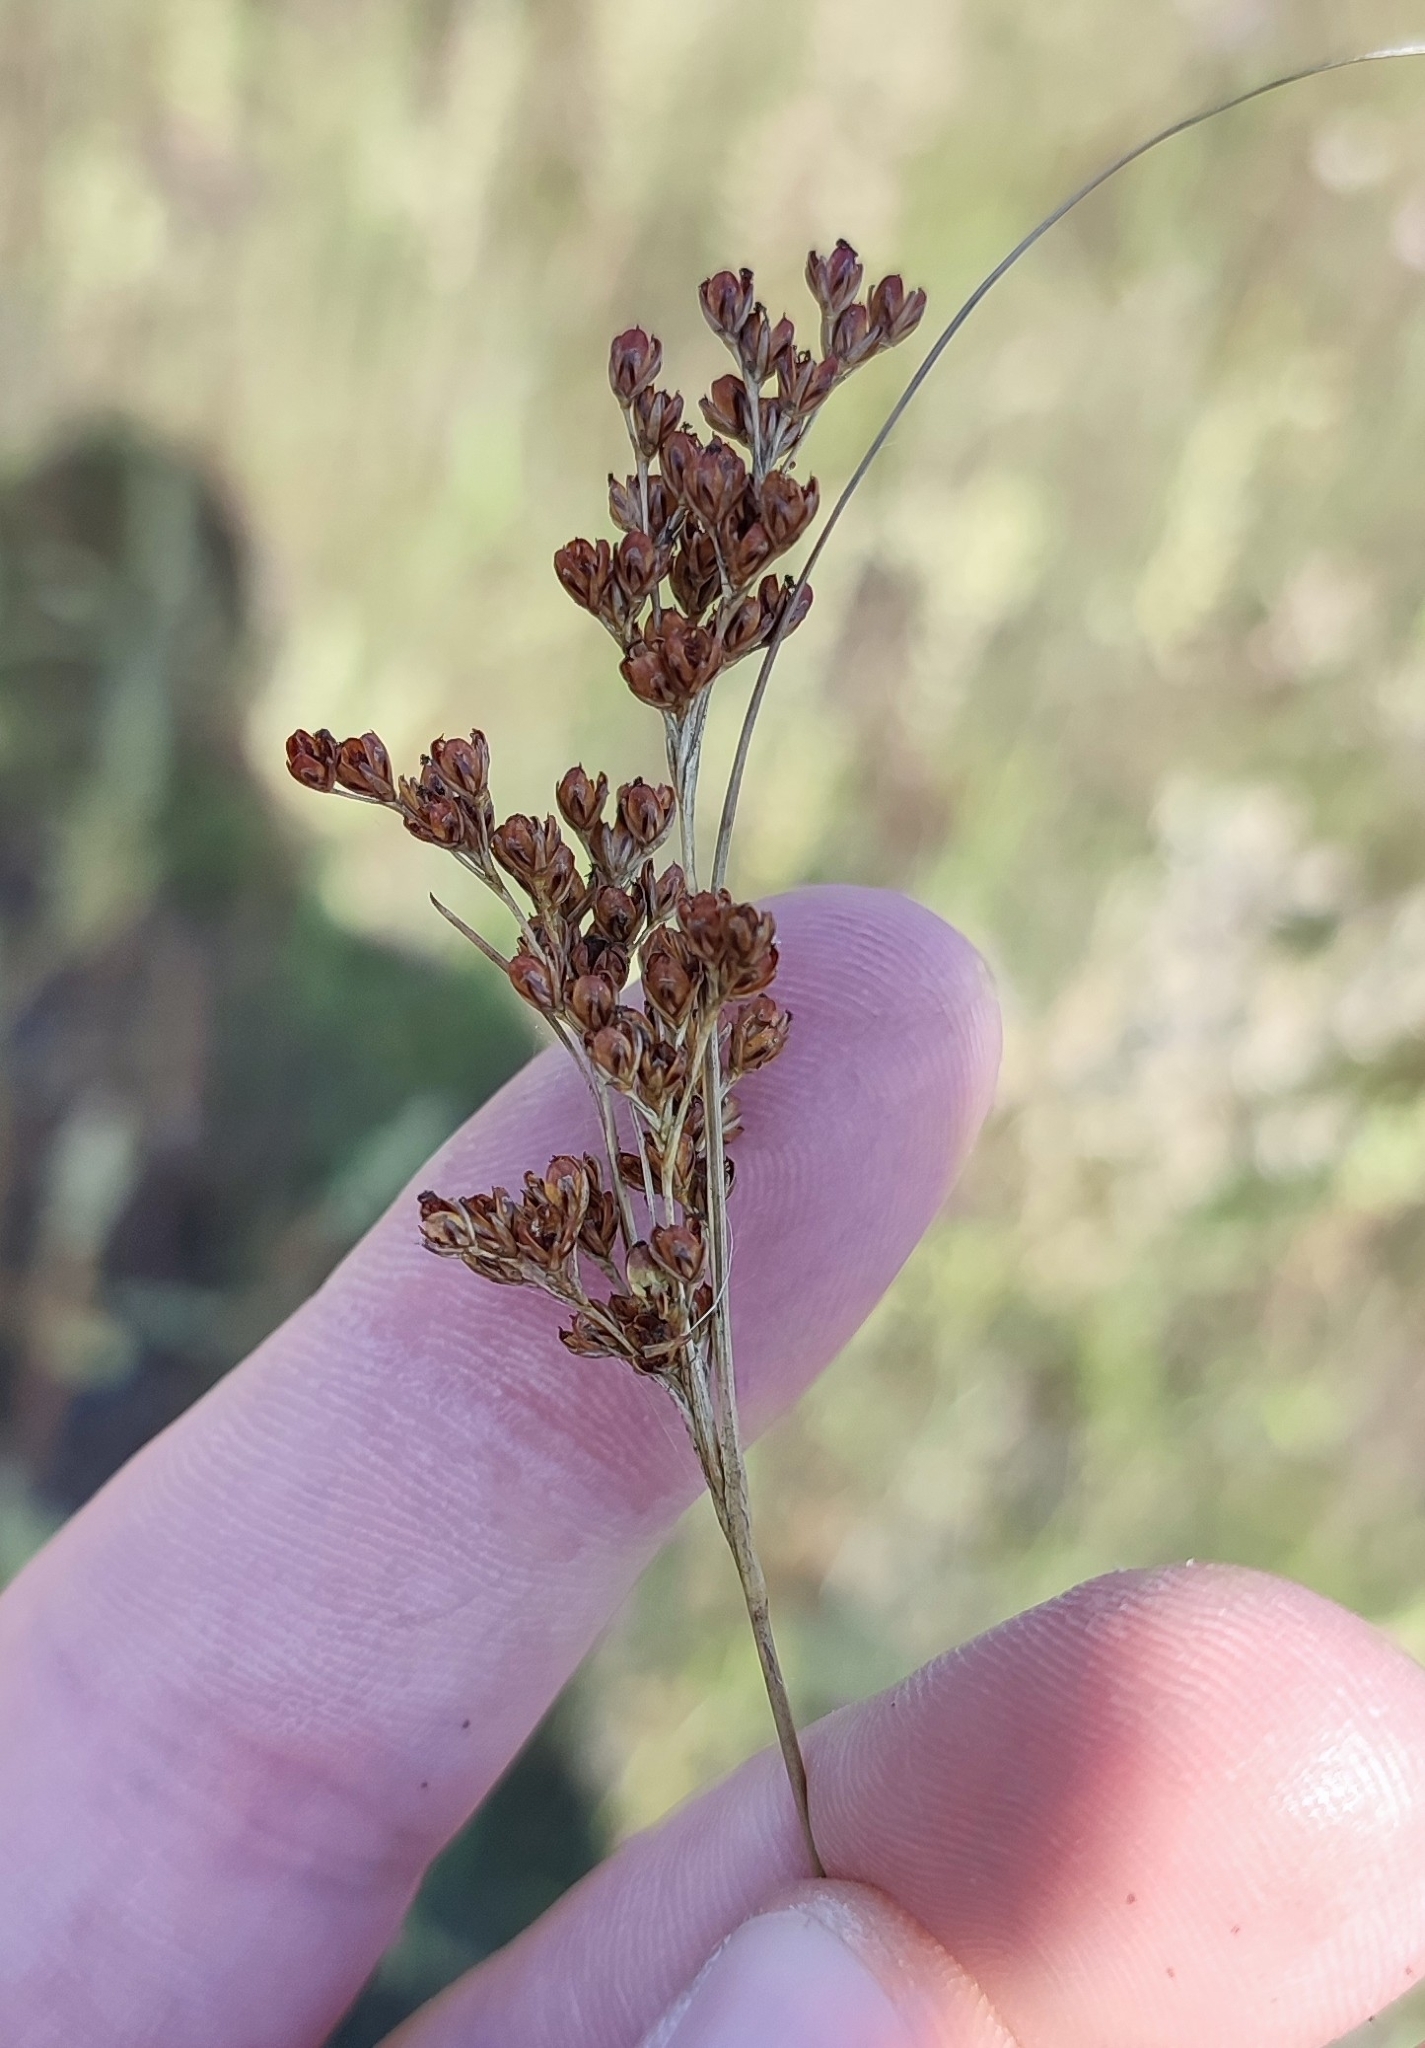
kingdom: Plantae
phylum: Tracheophyta
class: Liliopsida
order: Poales
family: Juncaceae
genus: Juncus
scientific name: Juncus compressus
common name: Round-fruited rush
